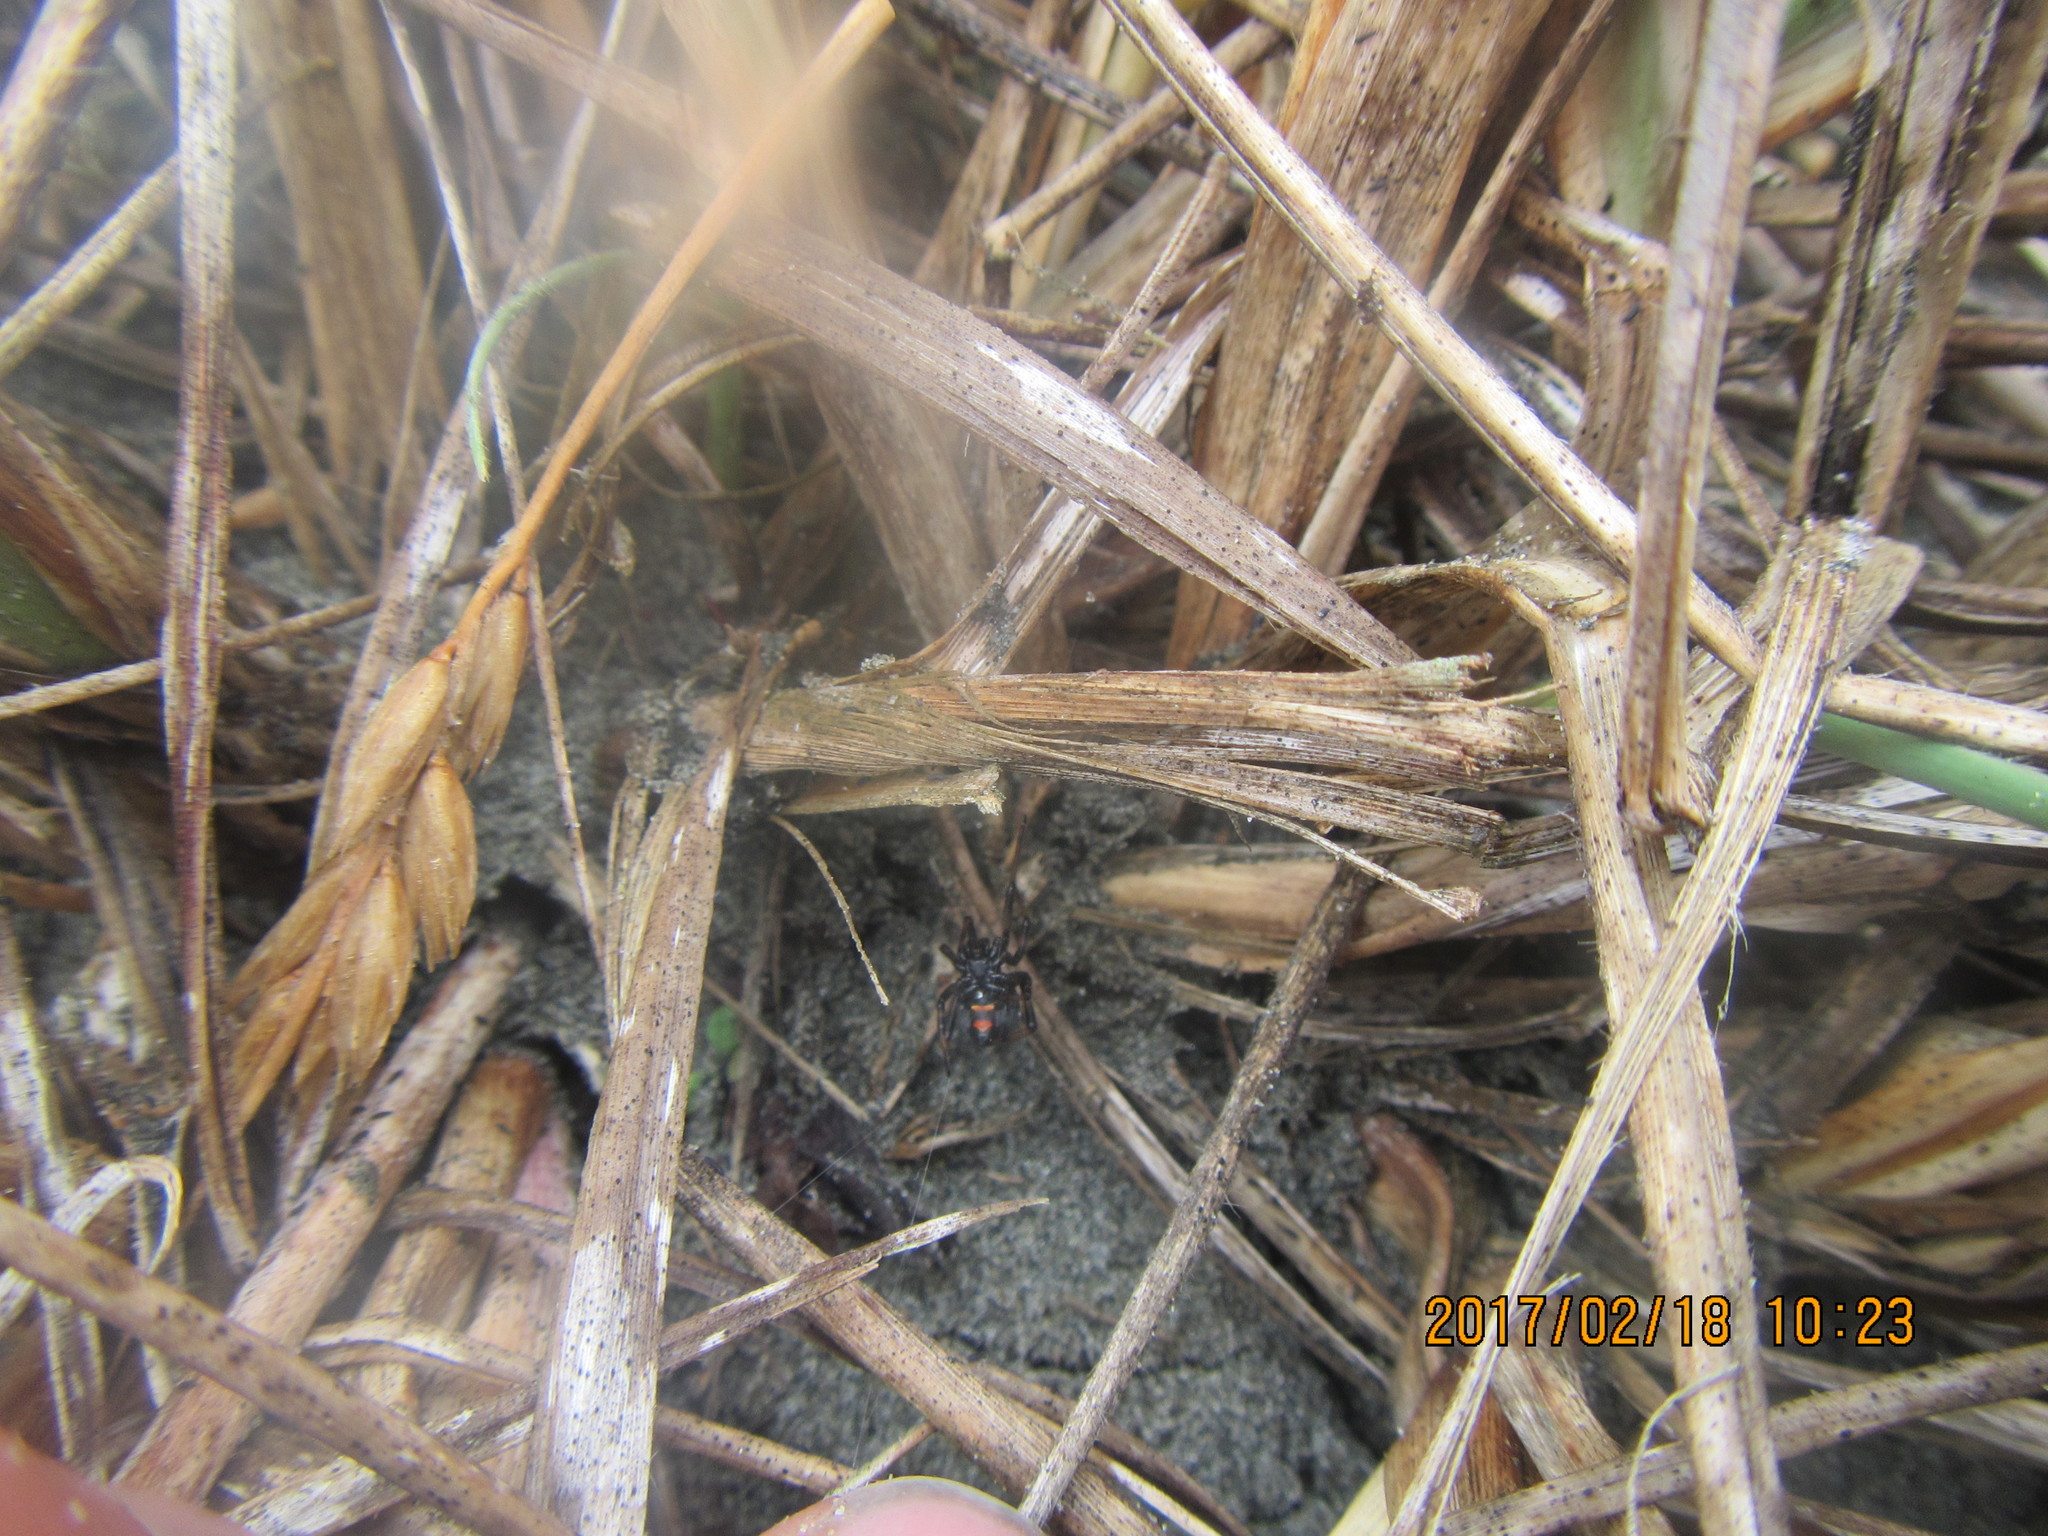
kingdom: Animalia
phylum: Arthropoda
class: Arachnida
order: Araneae
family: Theridiidae
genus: Latrodectus
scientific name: Latrodectus katipo
